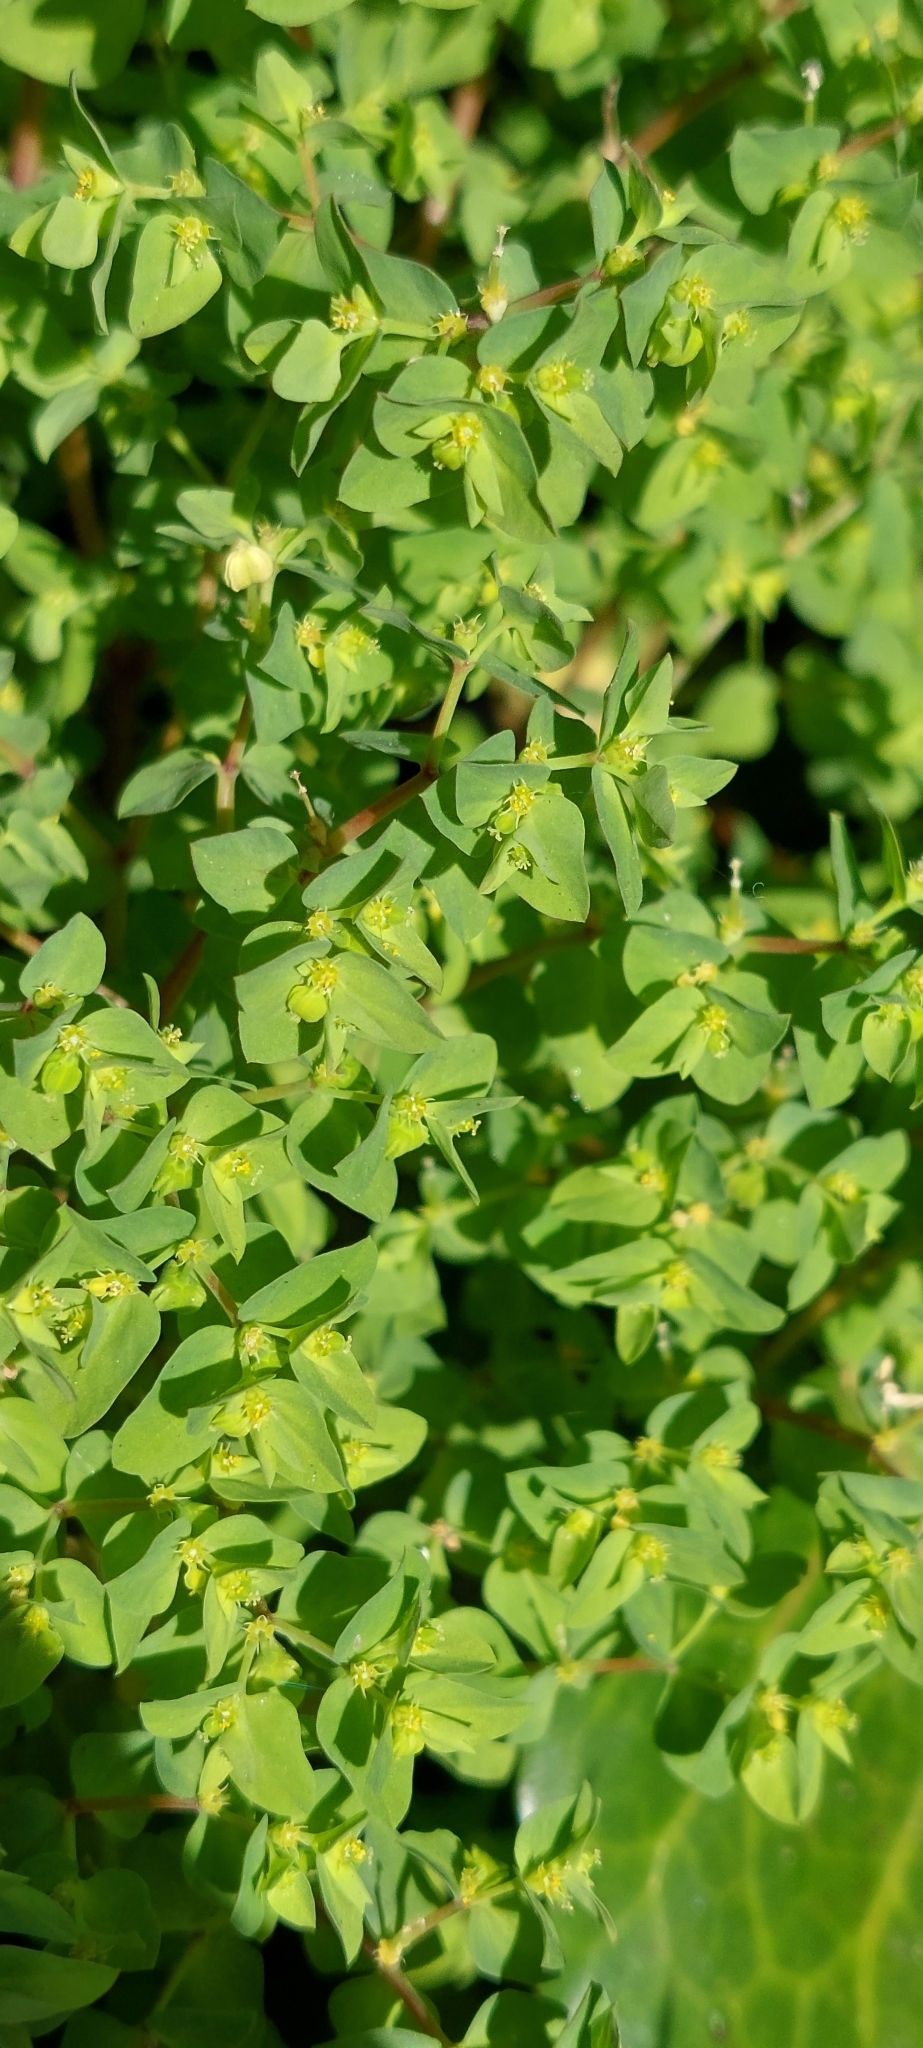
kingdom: Plantae
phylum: Tracheophyta
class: Magnoliopsida
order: Malpighiales
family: Euphorbiaceae
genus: Euphorbia
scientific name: Euphorbia peplus
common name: Petty spurge
